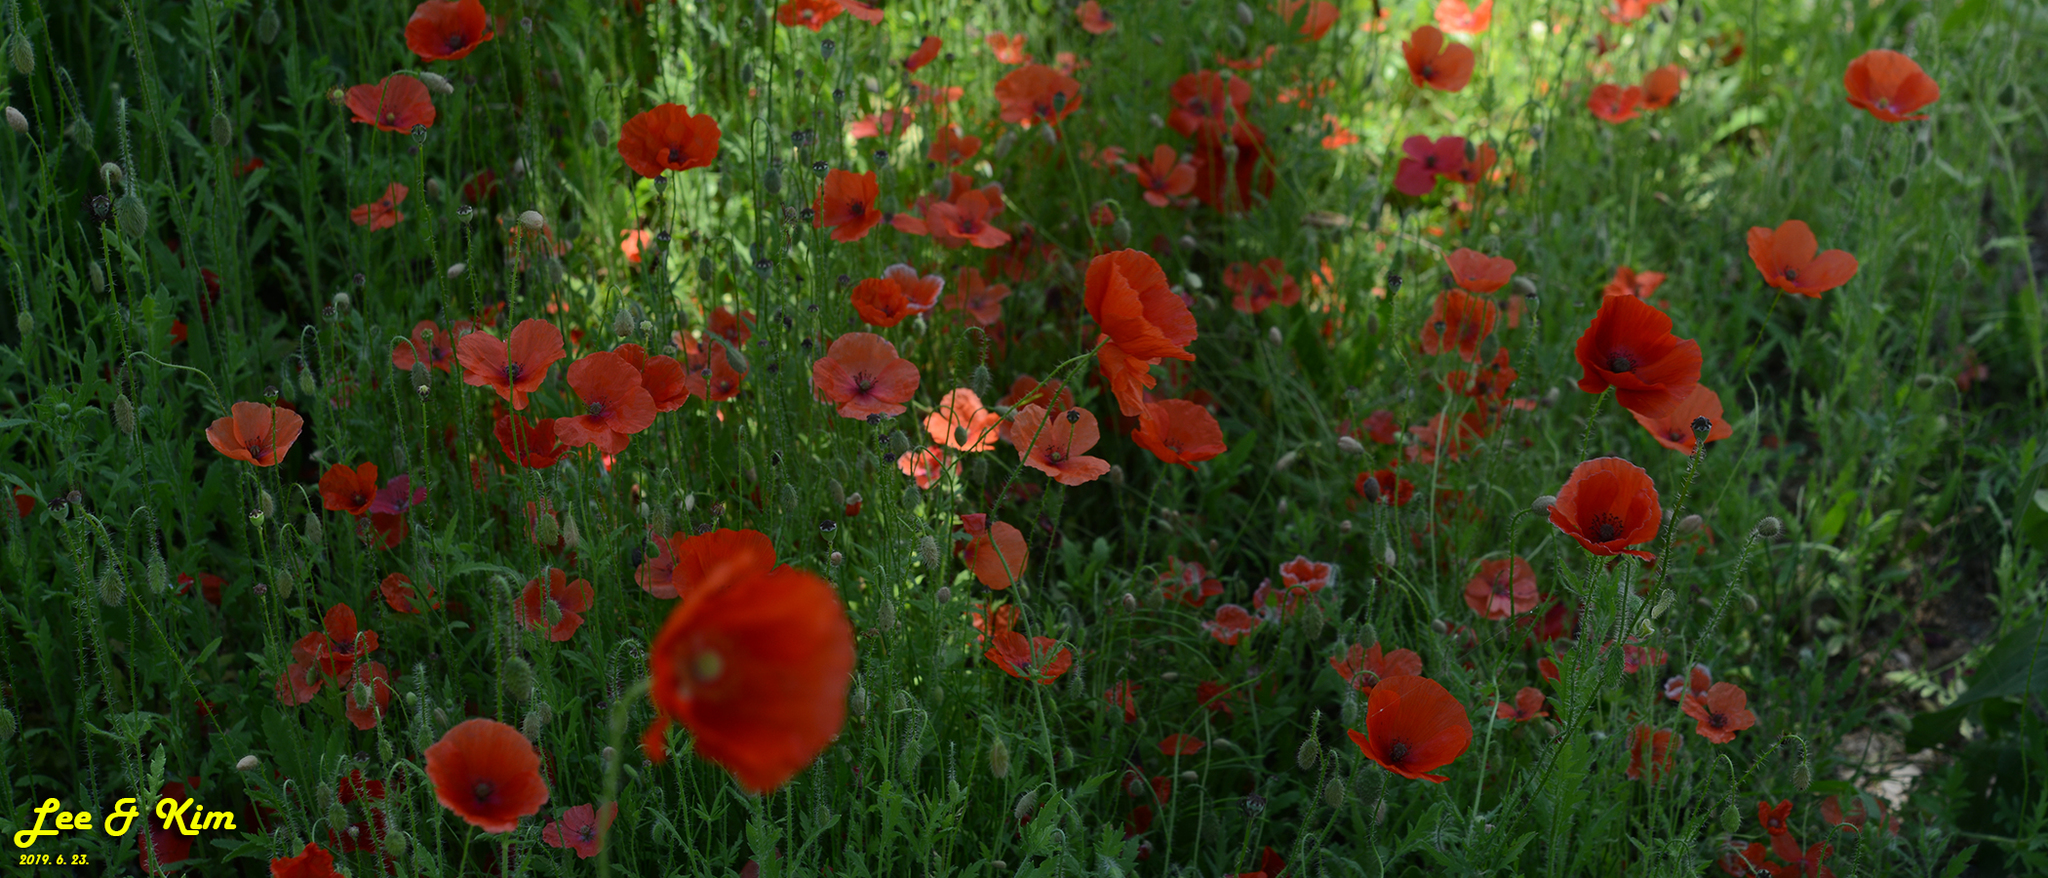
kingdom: Plantae
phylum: Tracheophyta
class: Magnoliopsida
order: Ranunculales
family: Papaveraceae
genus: Papaver
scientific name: Papaver rhoeas
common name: Corn poppy
